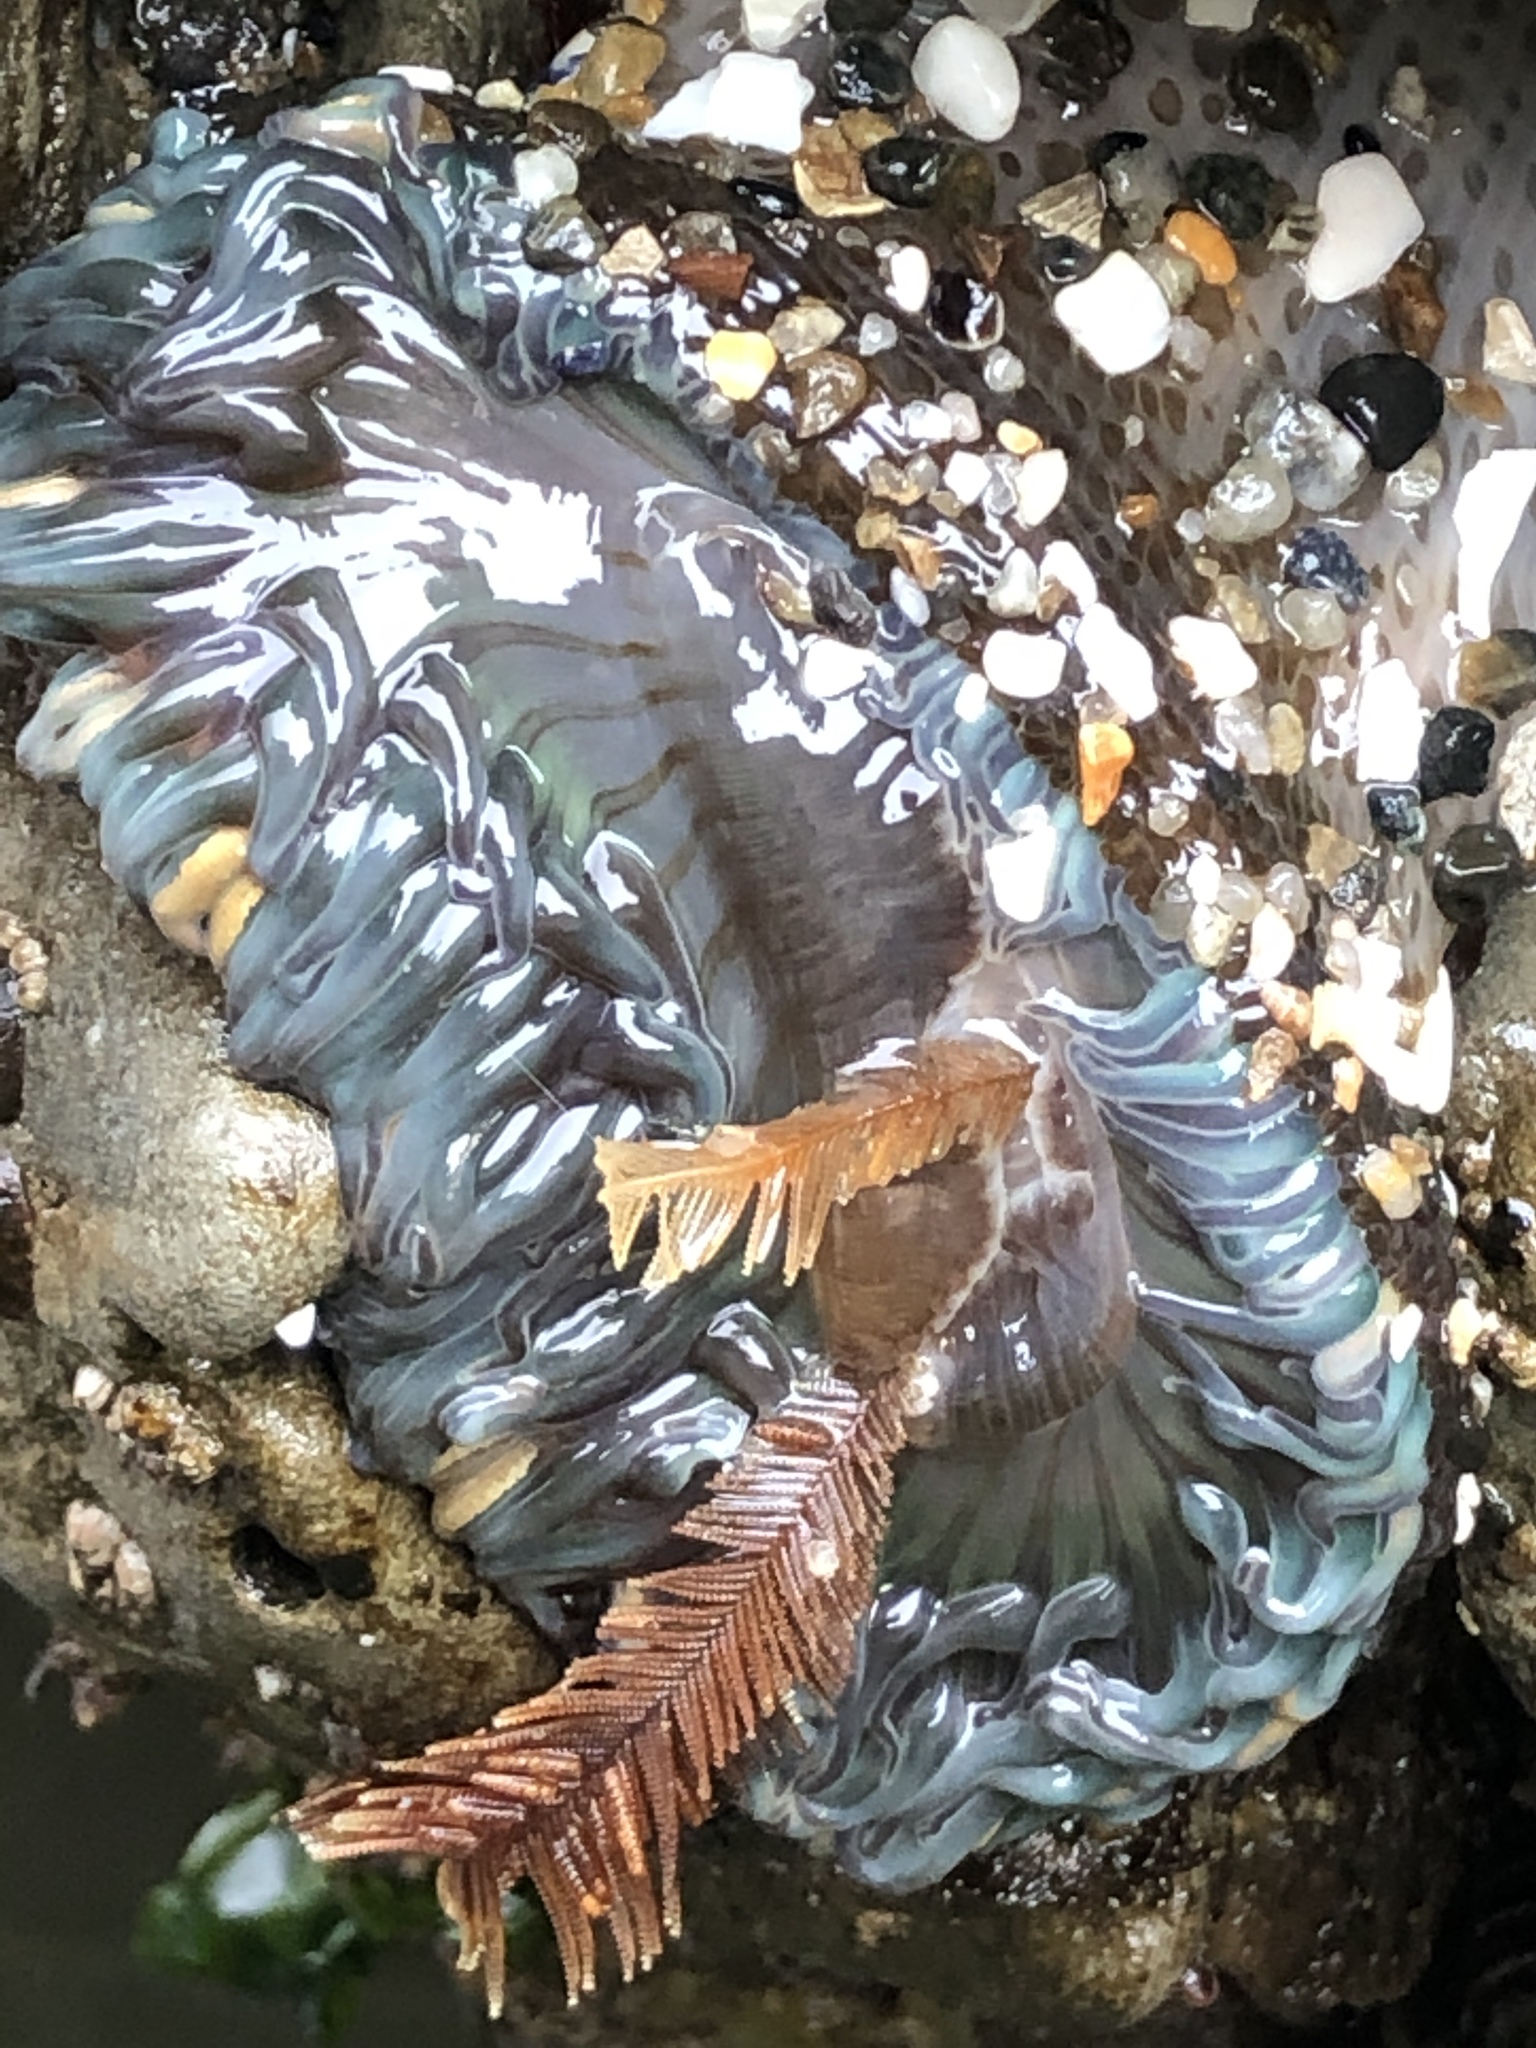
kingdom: Animalia
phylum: Cnidaria
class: Anthozoa
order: Actiniaria
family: Actiniidae
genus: Anthopleura
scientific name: Anthopleura sola
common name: Sun anemone
